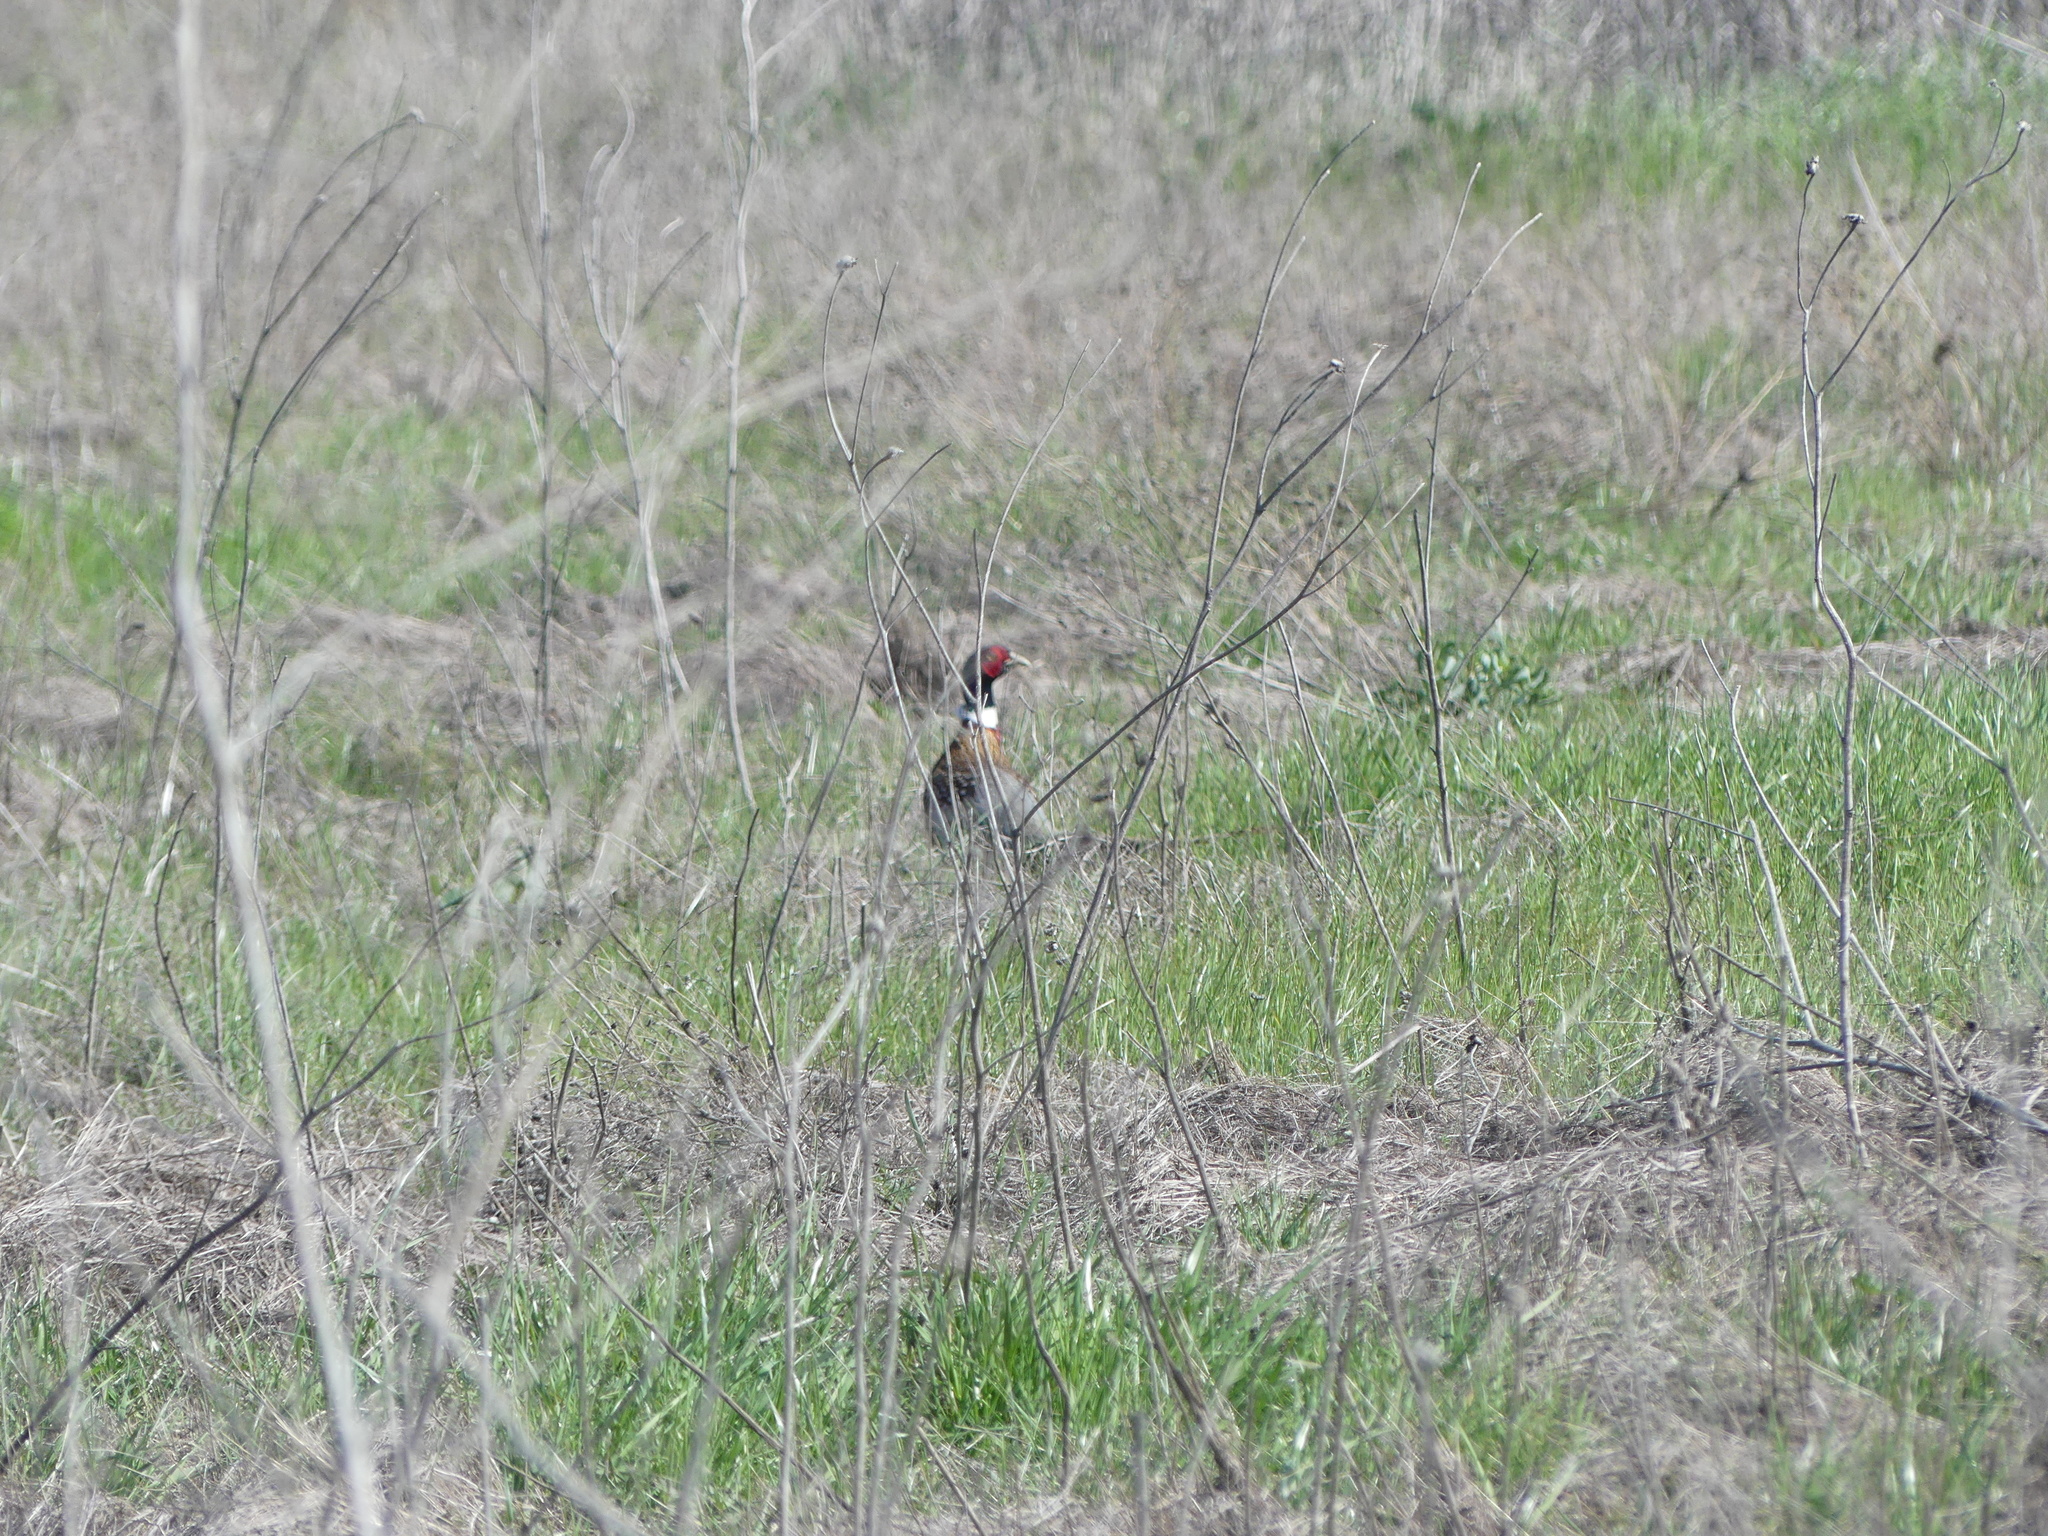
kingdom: Animalia
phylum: Chordata
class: Aves
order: Galliformes
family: Phasianidae
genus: Phasianus
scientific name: Phasianus colchicus
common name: Common pheasant
